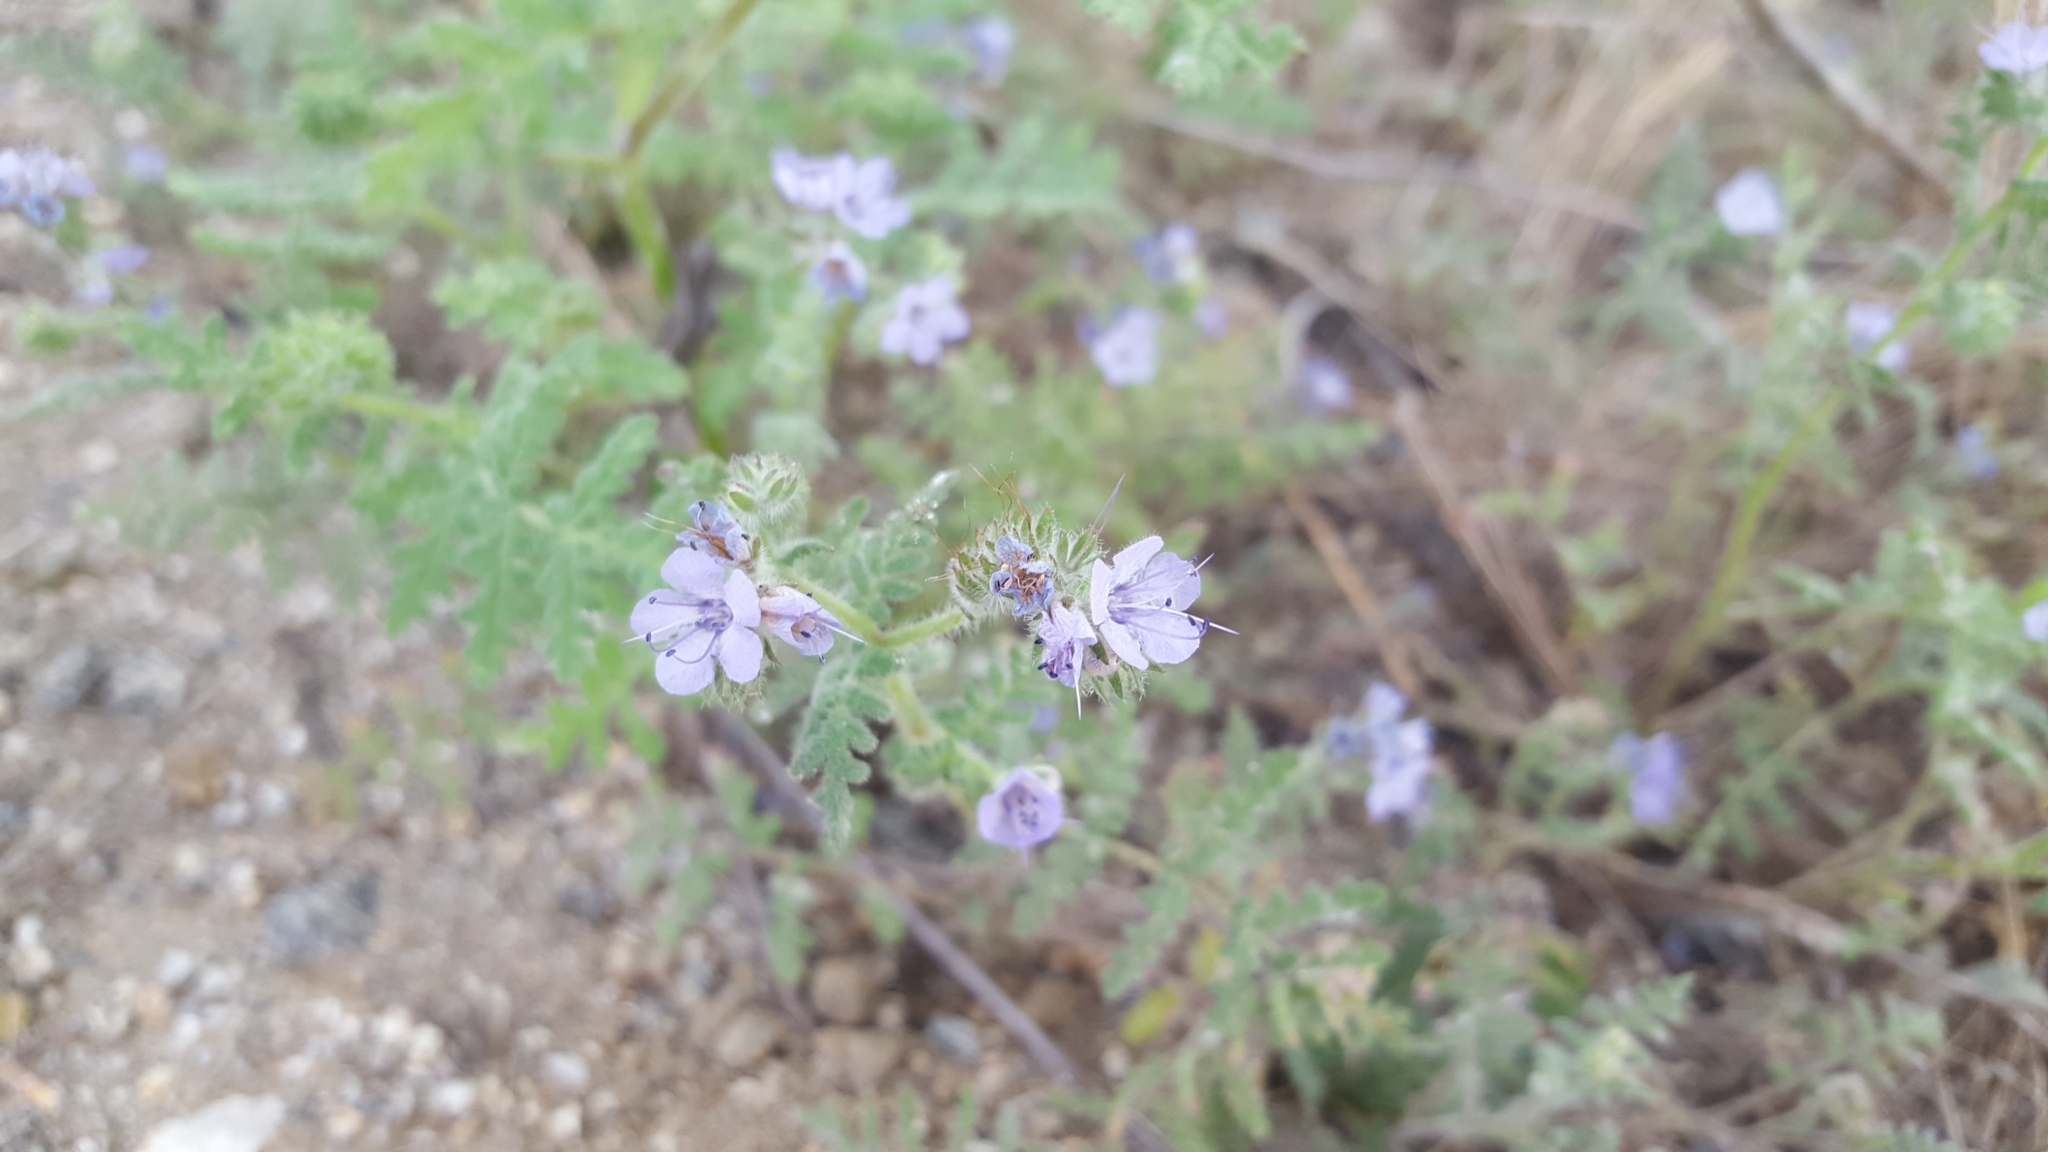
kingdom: Plantae
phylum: Tracheophyta
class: Magnoliopsida
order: Boraginales
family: Hydrophyllaceae
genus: Phacelia
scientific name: Phacelia distans
